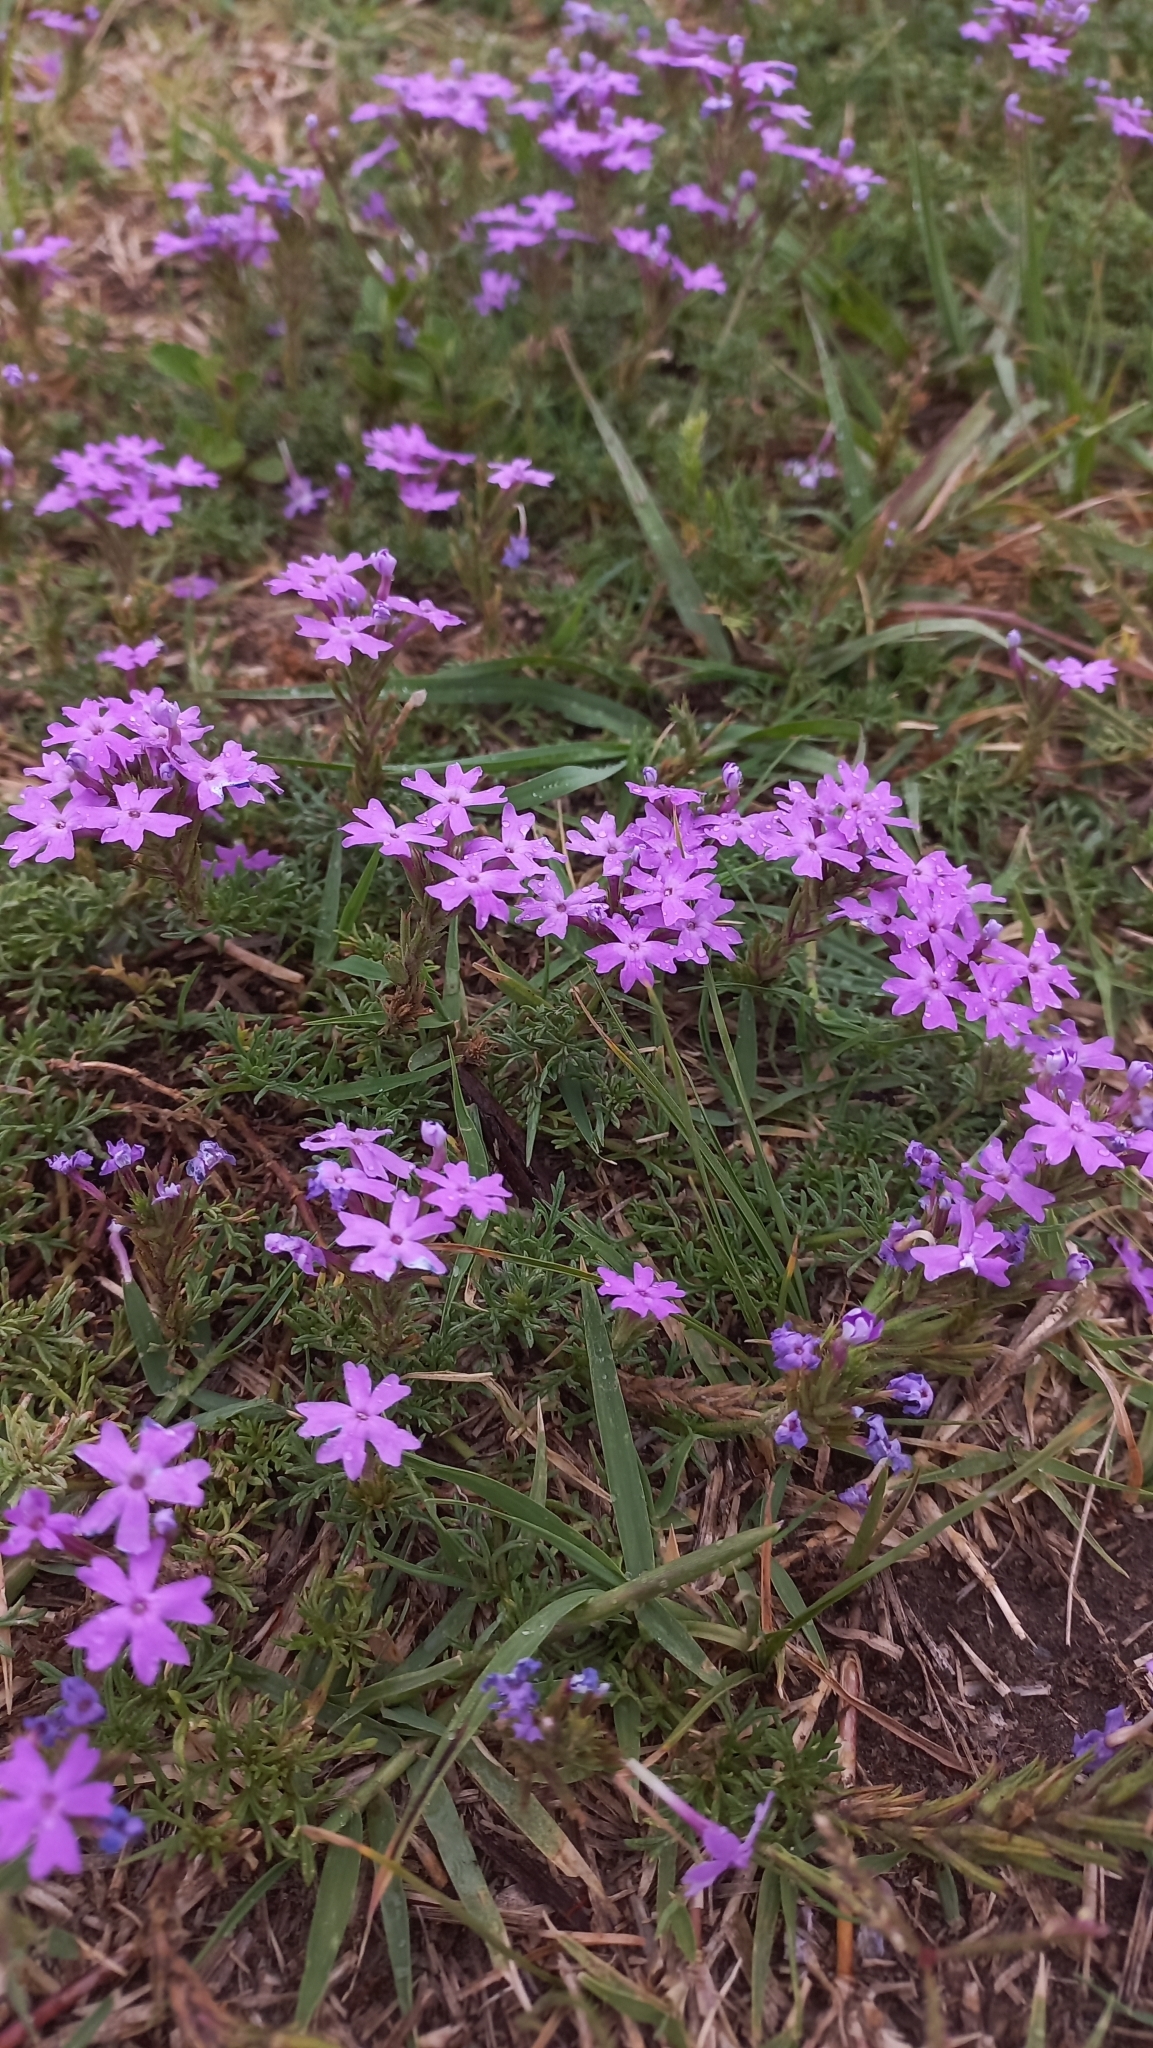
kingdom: Plantae
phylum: Tracheophyta
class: Magnoliopsida
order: Lamiales
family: Verbenaceae
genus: Verbena
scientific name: Verbena tenera
